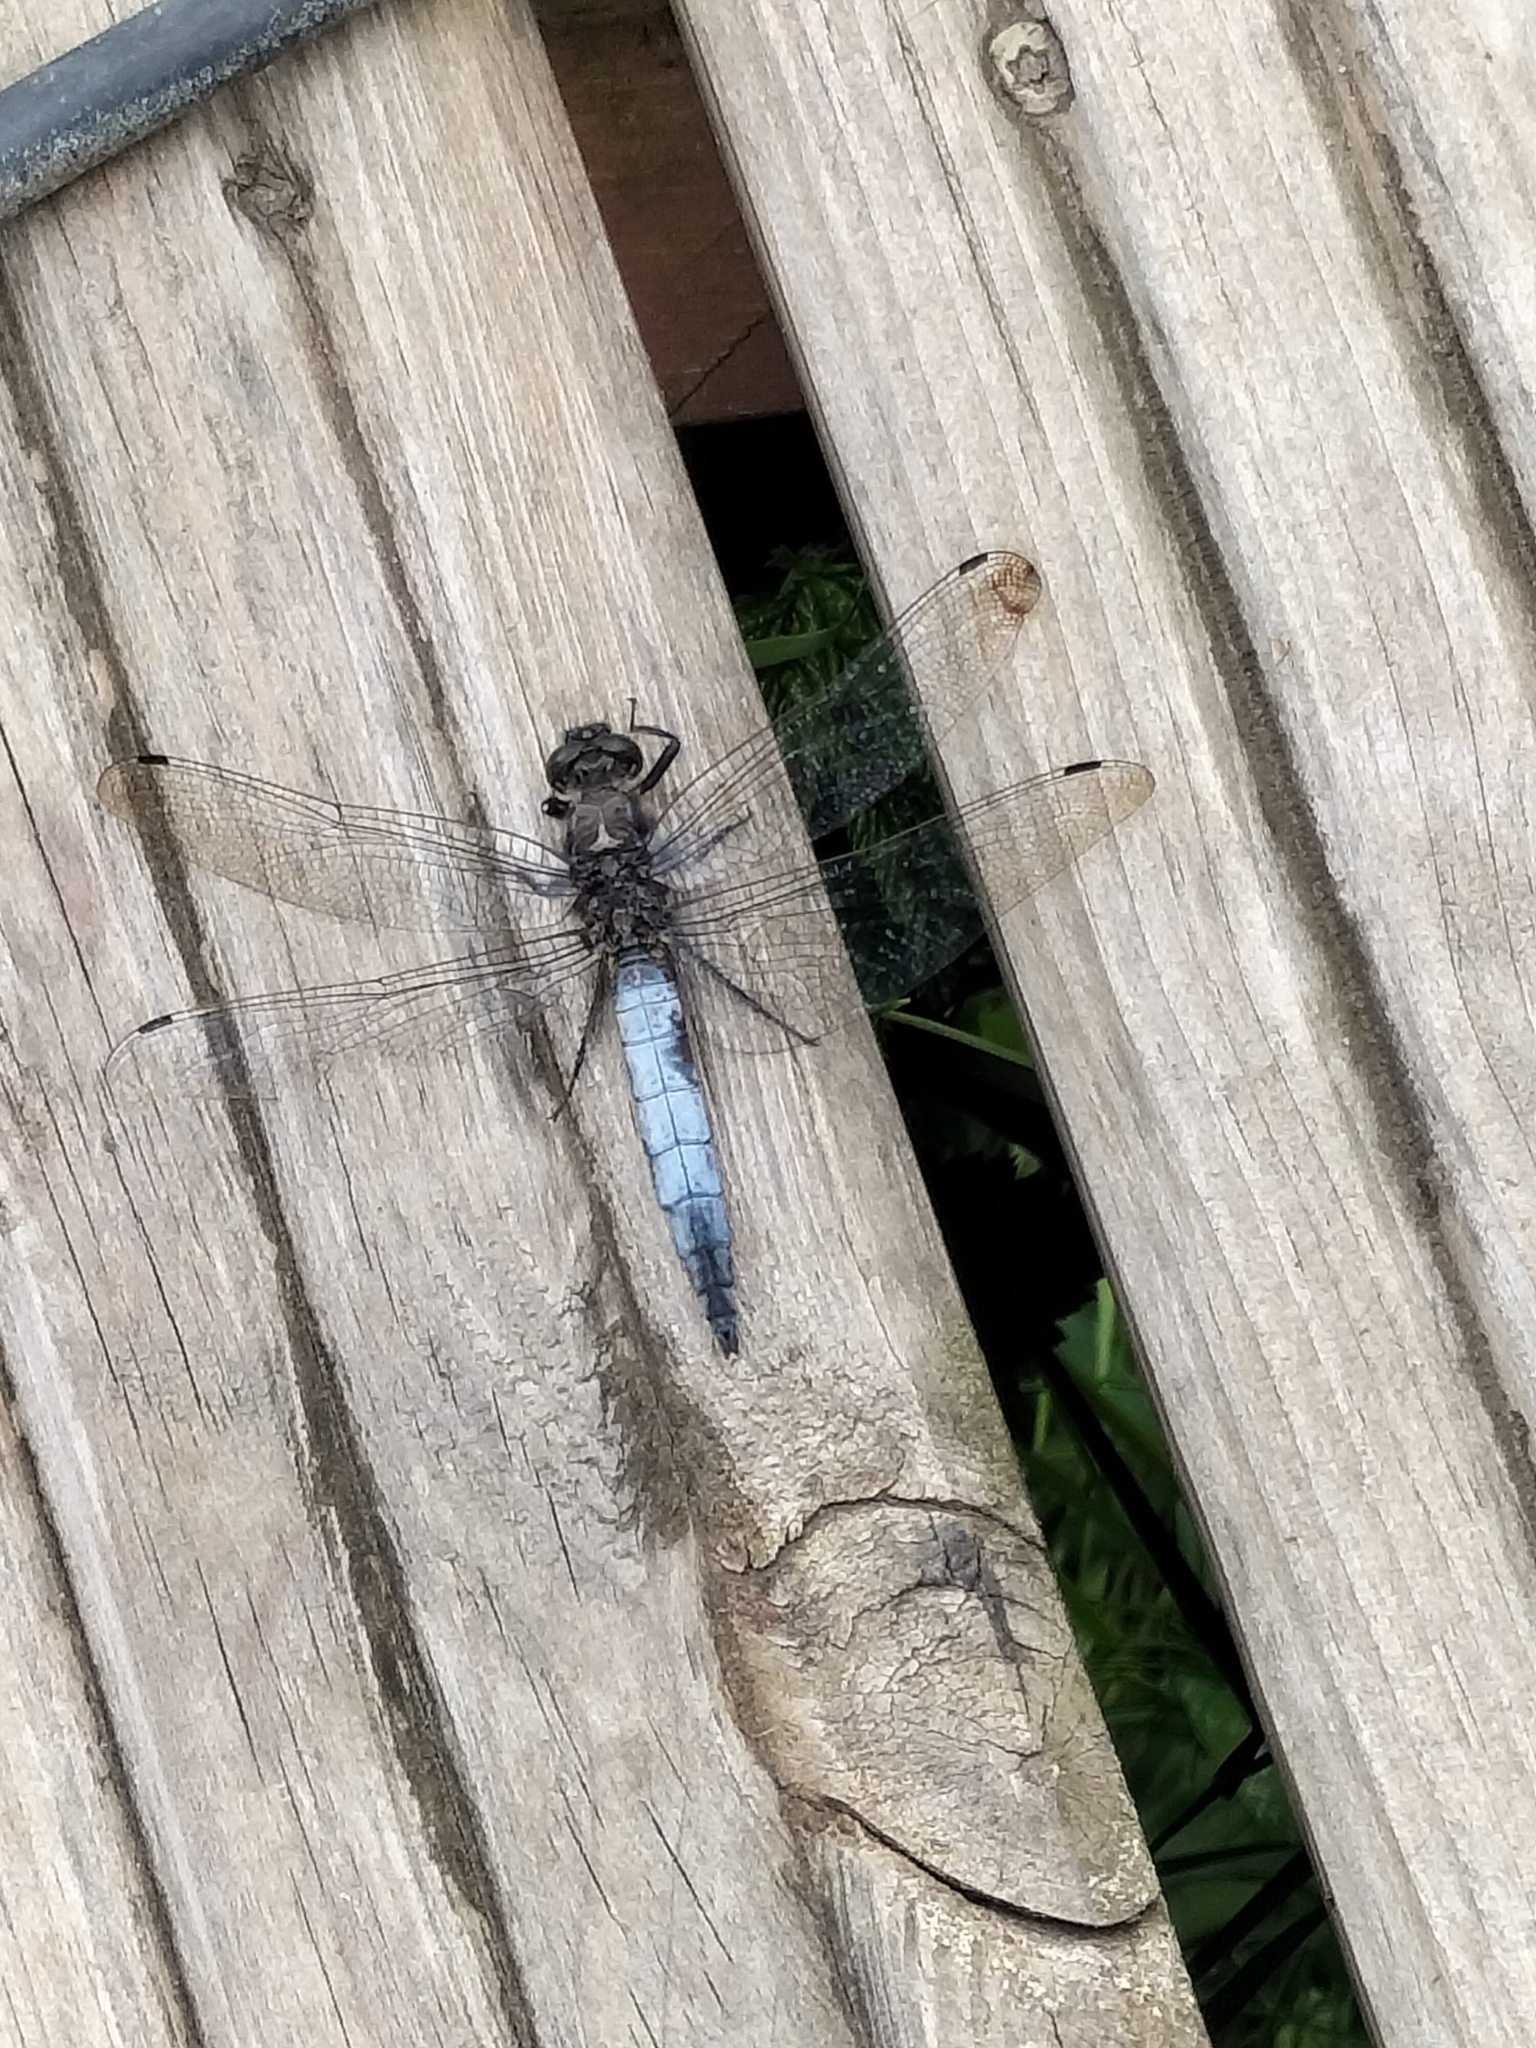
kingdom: Animalia
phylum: Arthropoda
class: Insecta
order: Odonata
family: Libellulidae
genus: Orthetrum
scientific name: Orthetrum cancellatum
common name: Black-tailed skimmer
